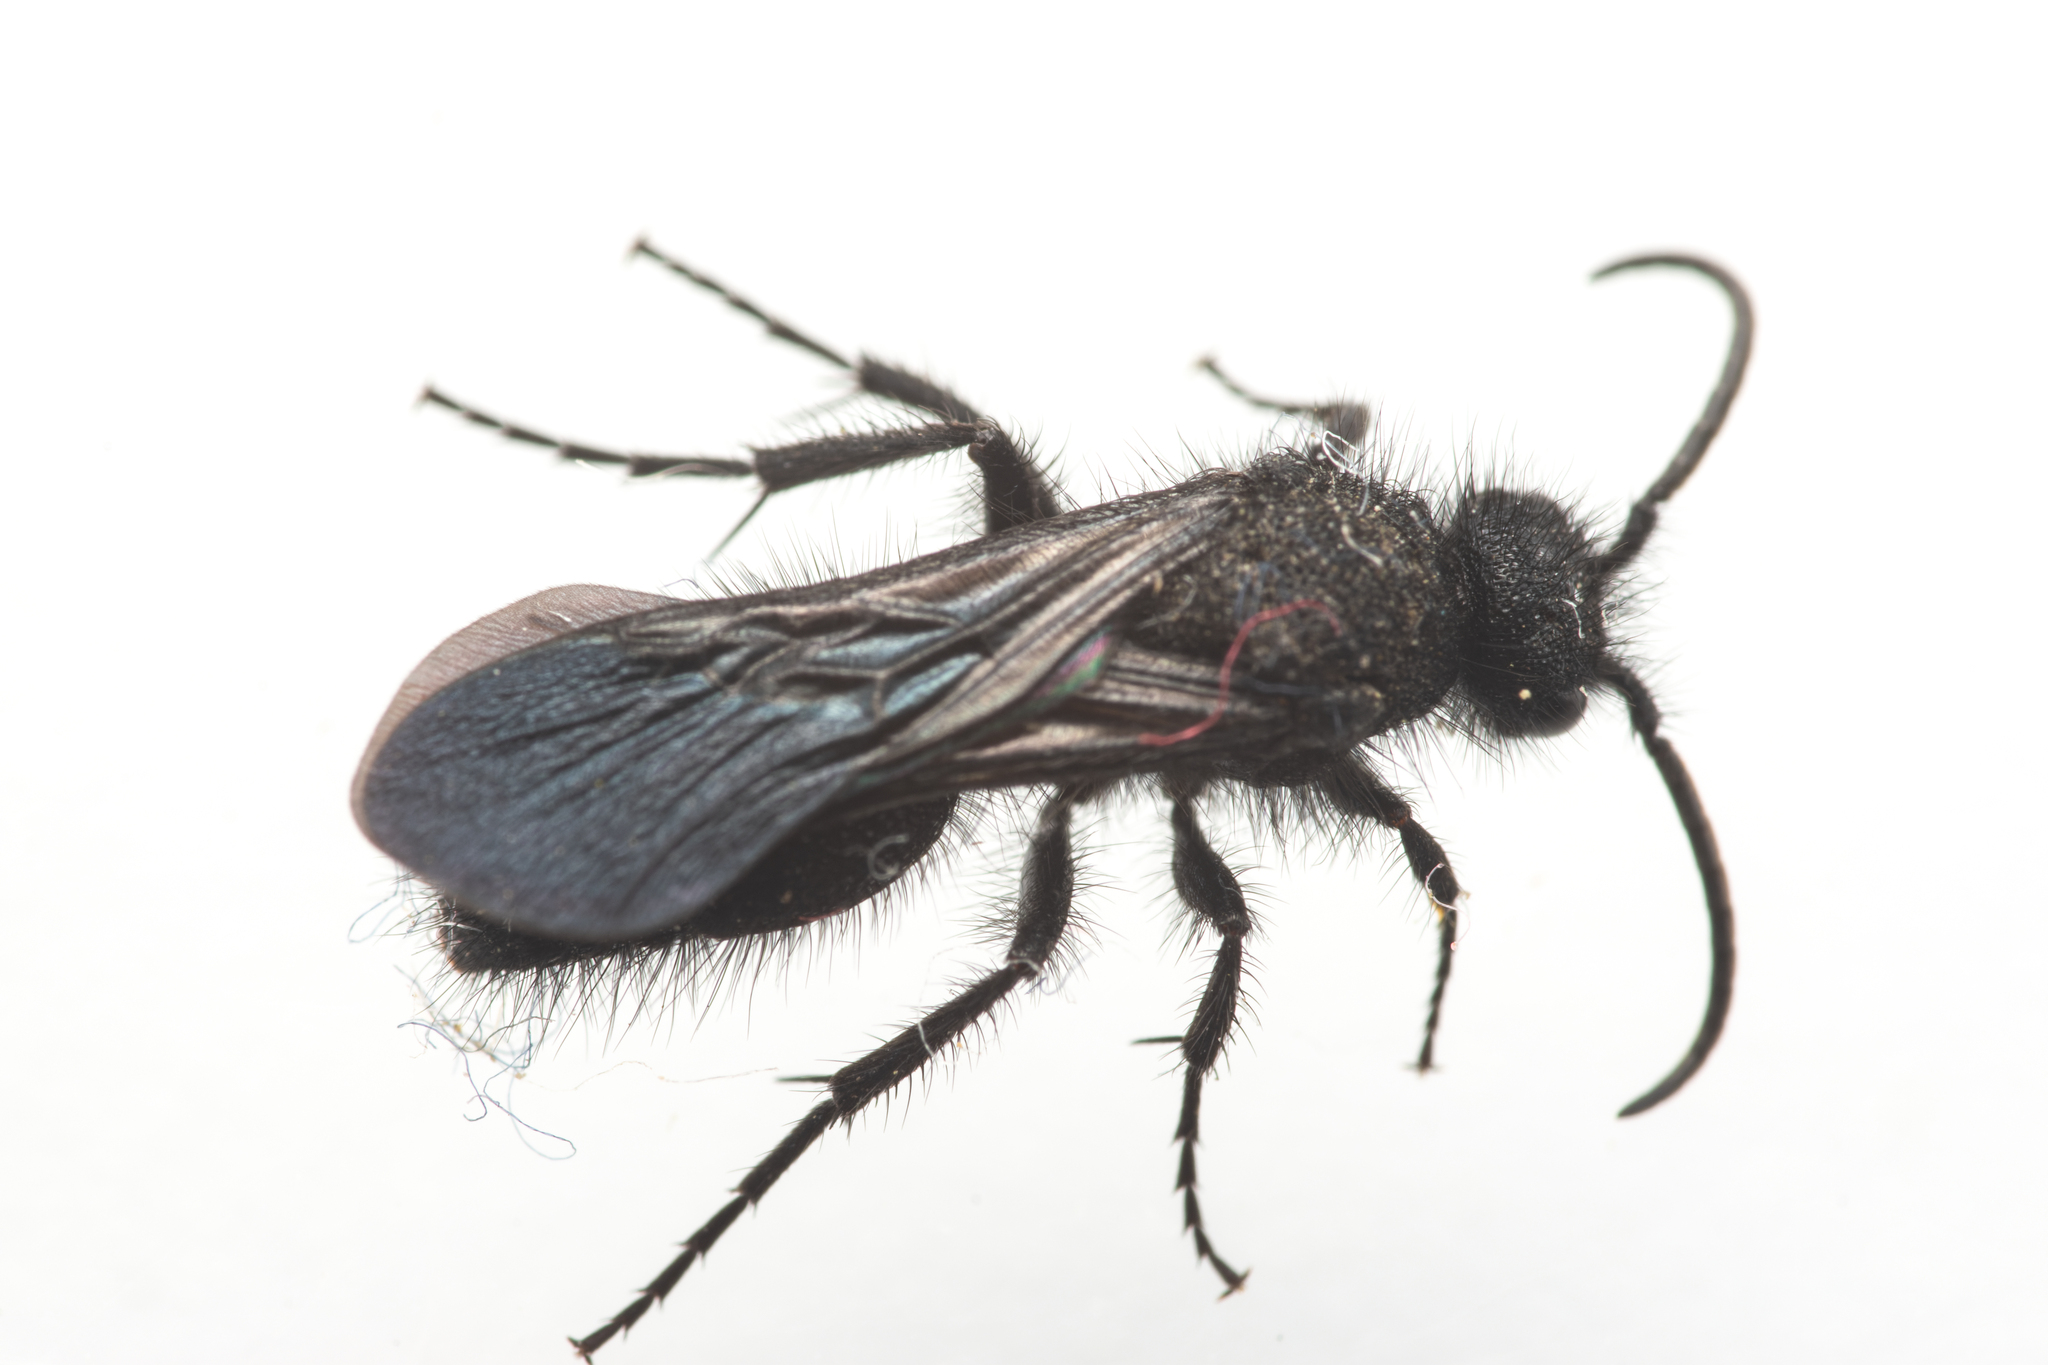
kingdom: Animalia
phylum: Arthropoda
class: Insecta
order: Hymenoptera
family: Mutillidae
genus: Dasylabris
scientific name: Dasylabris lugubris
